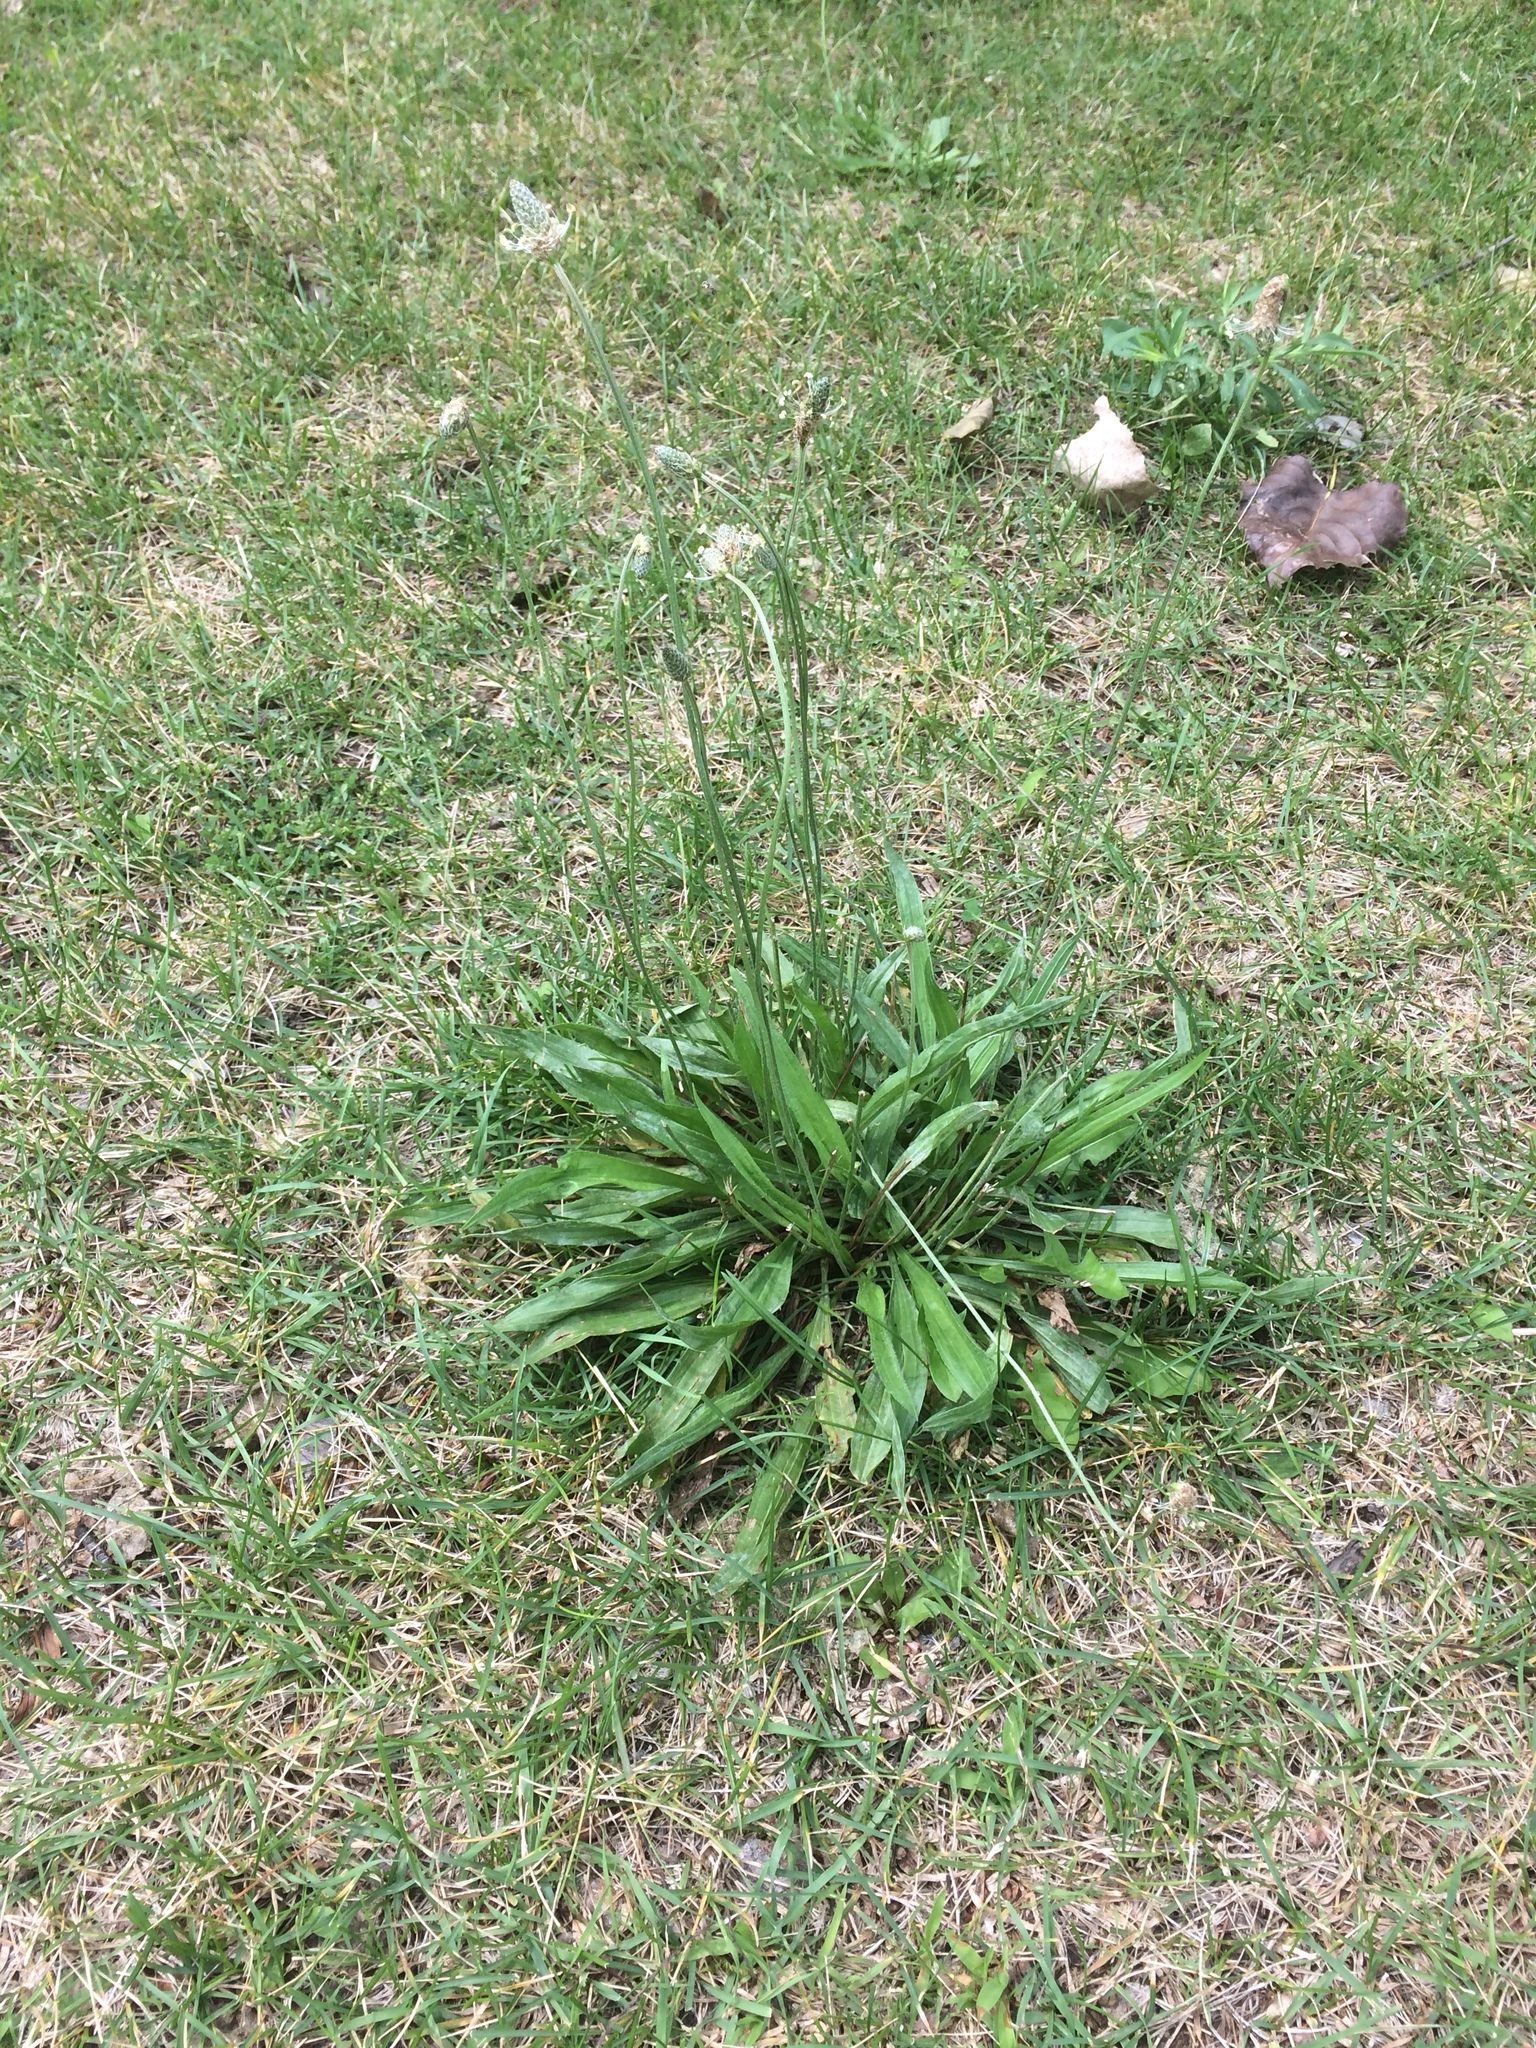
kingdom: Plantae
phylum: Tracheophyta
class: Magnoliopsida
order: Lamiales
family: Plantaginaceae
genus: Plantago
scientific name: Plantago lanceolata
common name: Ribwort plantain
